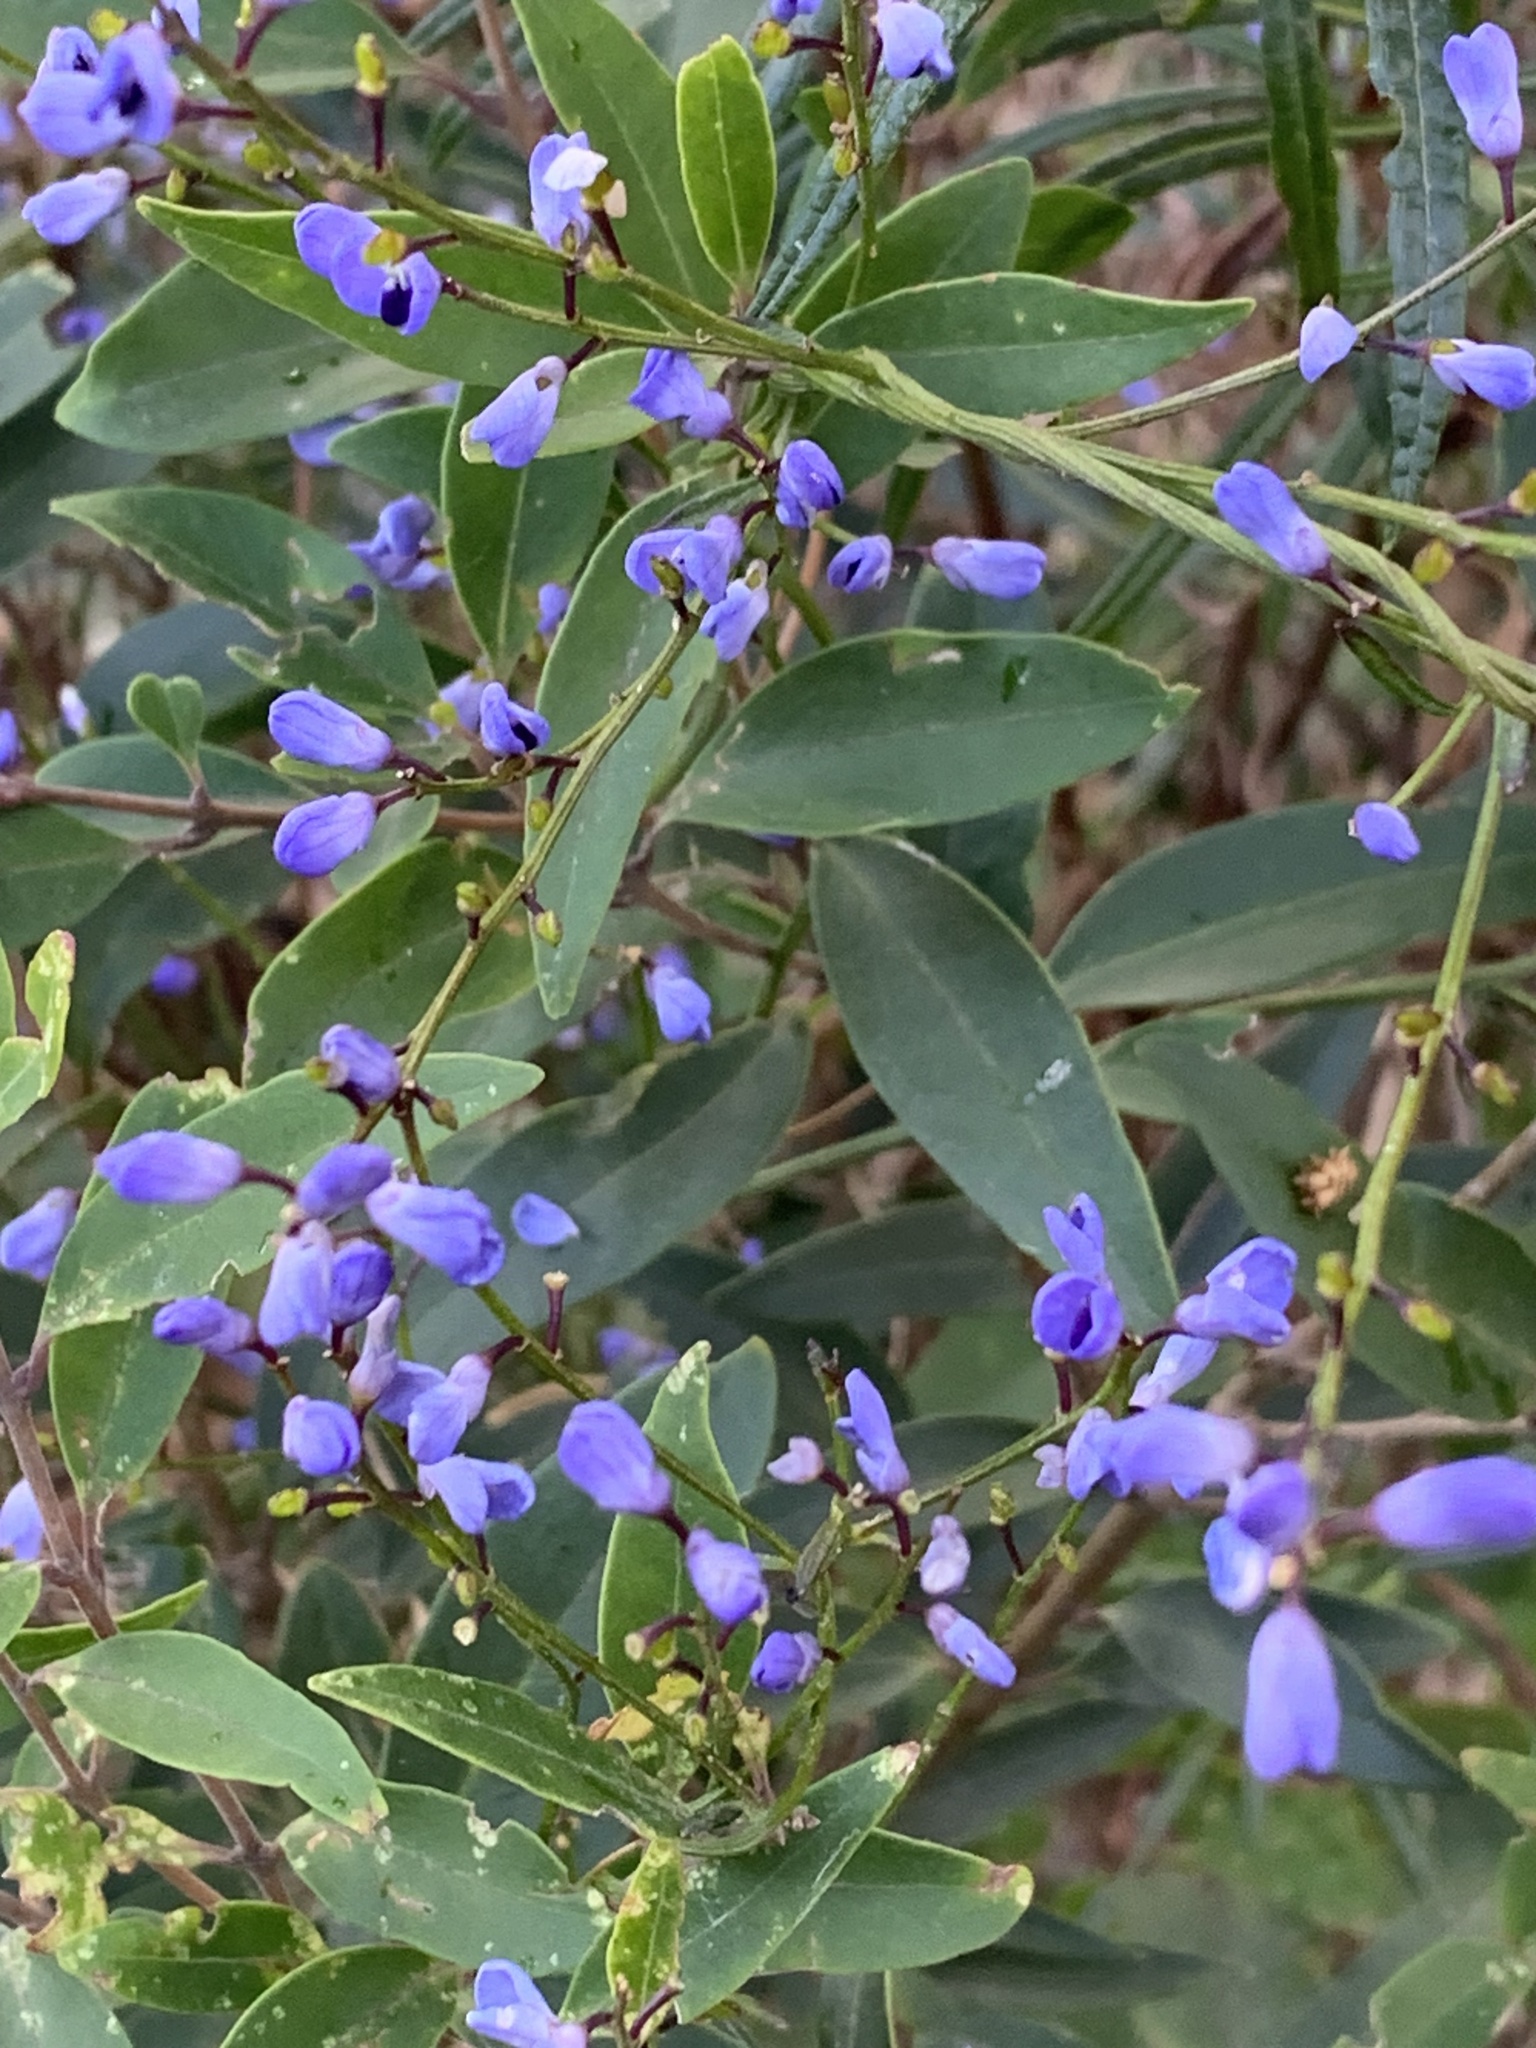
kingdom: Plantae
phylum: Tracheophyta
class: Magnoliopsida
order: Fabales
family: Polygalaceae
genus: Comesperma
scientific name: Comesperma volubile
